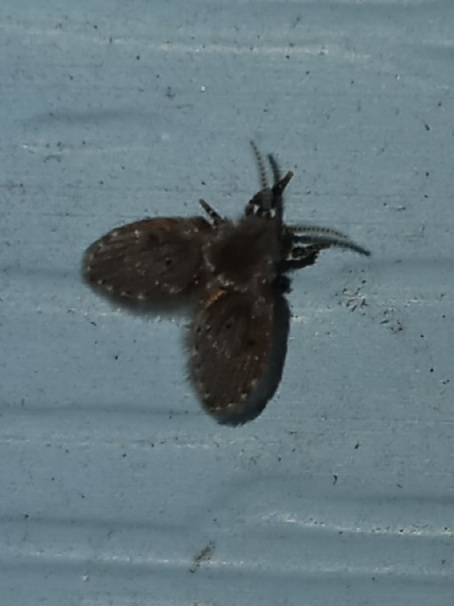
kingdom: Animalia
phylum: Arthropoda
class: Insecta
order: Diptera
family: Psychodidae
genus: Clogmia
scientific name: Clogmia albipunctatus
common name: White-spotted moth fly
